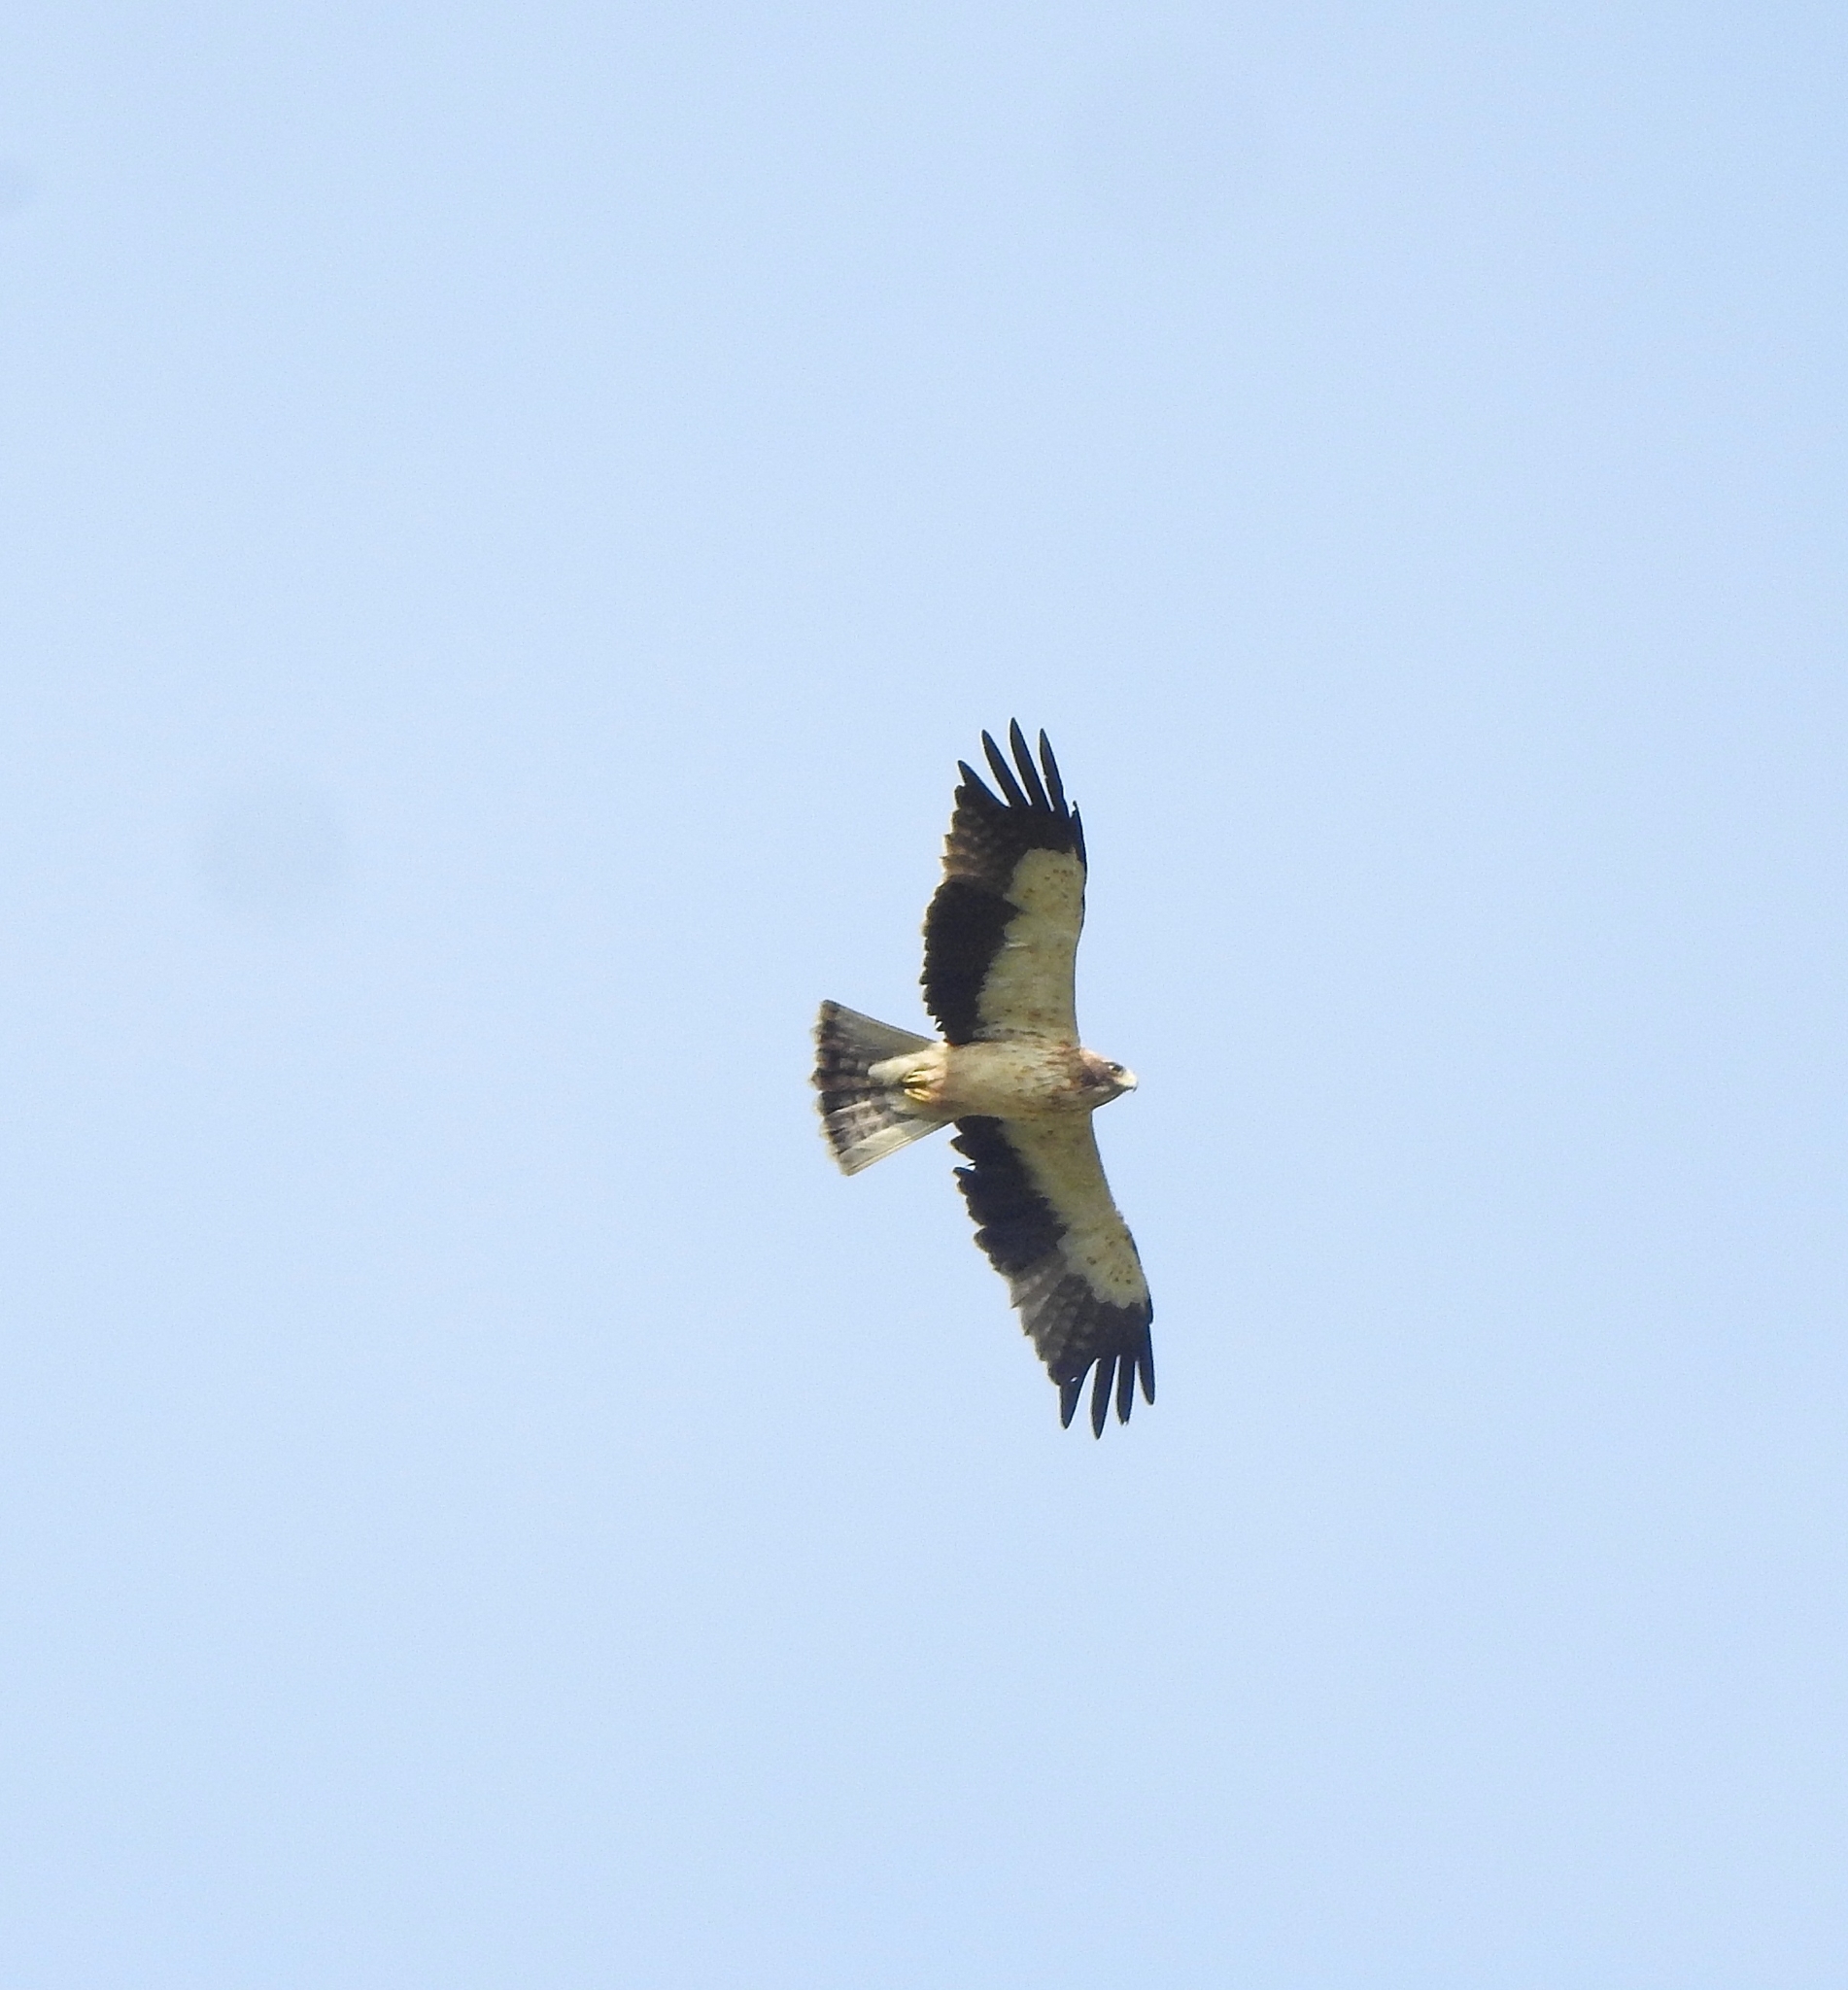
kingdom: Animalia
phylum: Chordata
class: Aves
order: Accipitriformes
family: Accipitridae
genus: Hieraaetus
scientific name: Hieraaetus pennatus
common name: Booted eagle
